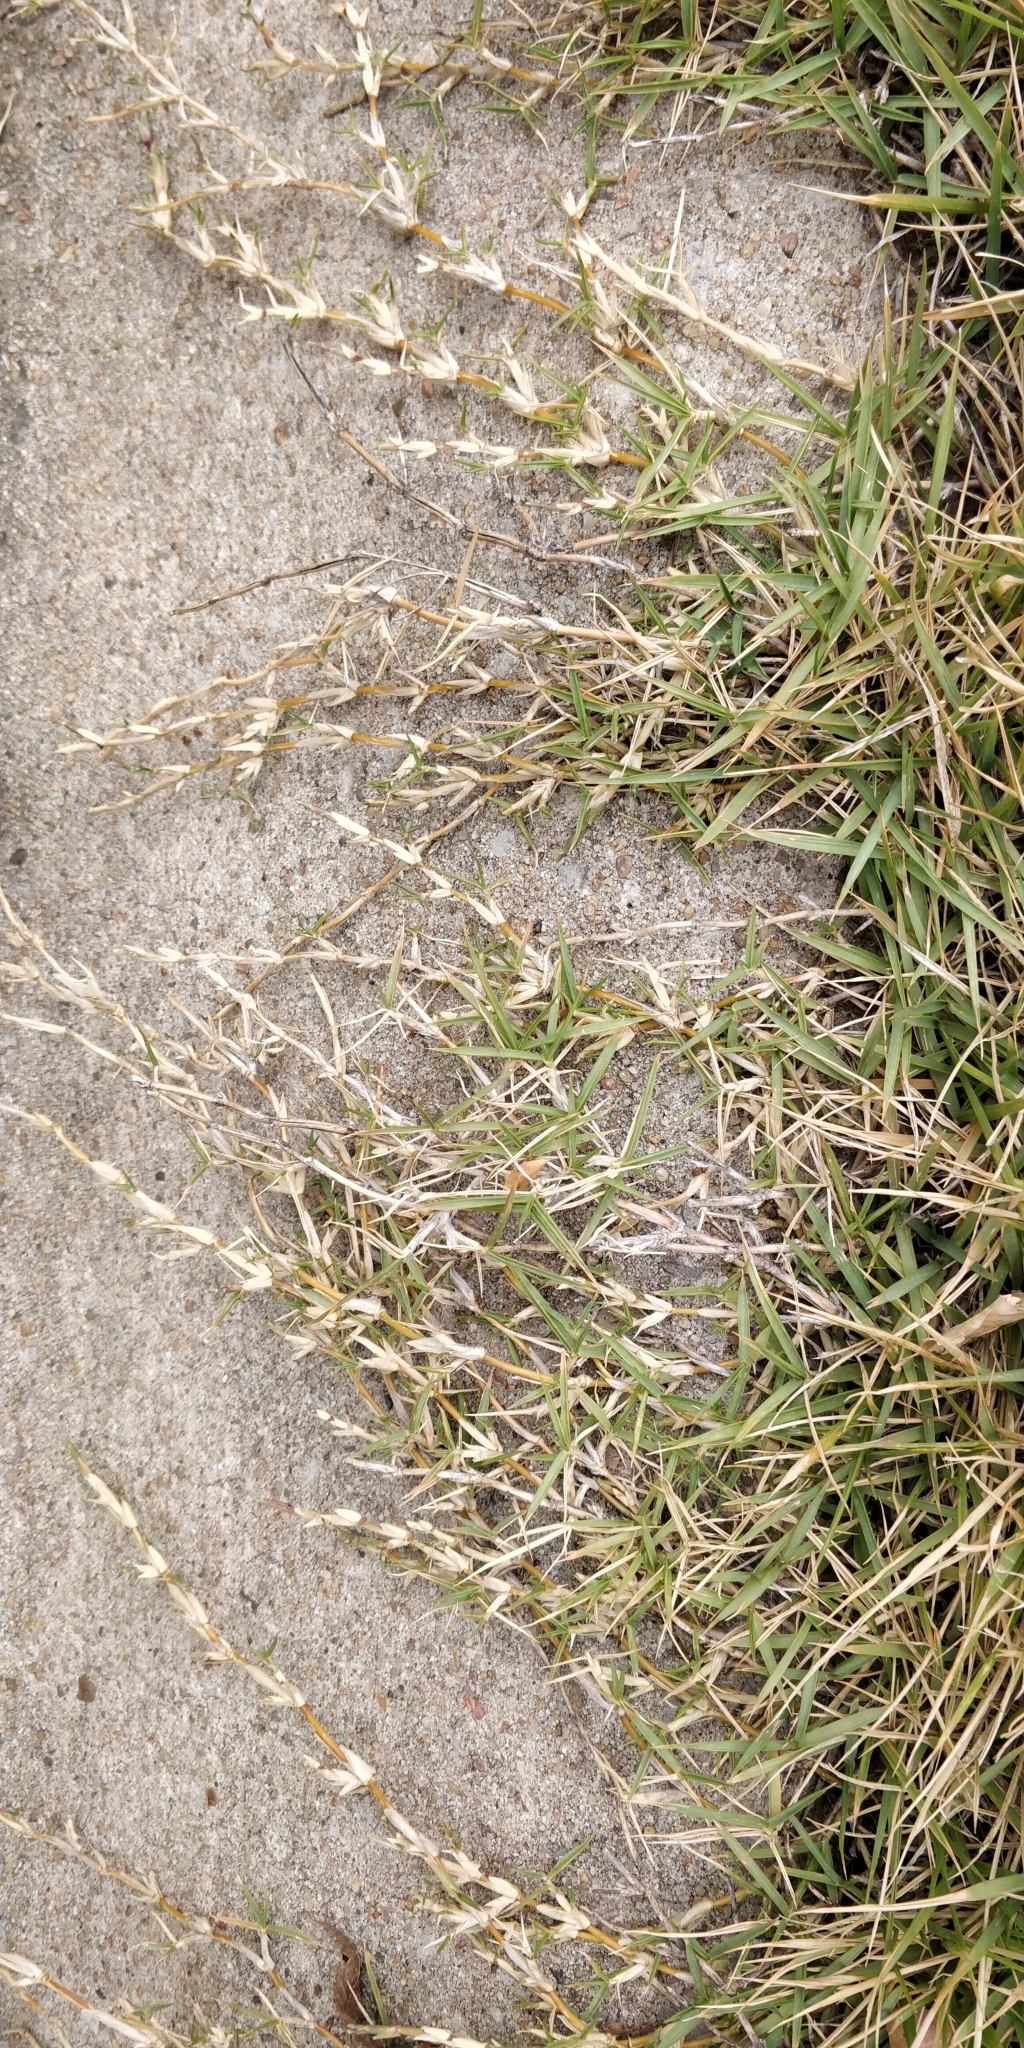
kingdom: Plantae
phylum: Tracheophyta
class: Liliopsida
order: Poales
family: Poaceae
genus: Cynodon
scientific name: Cynodon dactylon
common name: Bermuda grass
